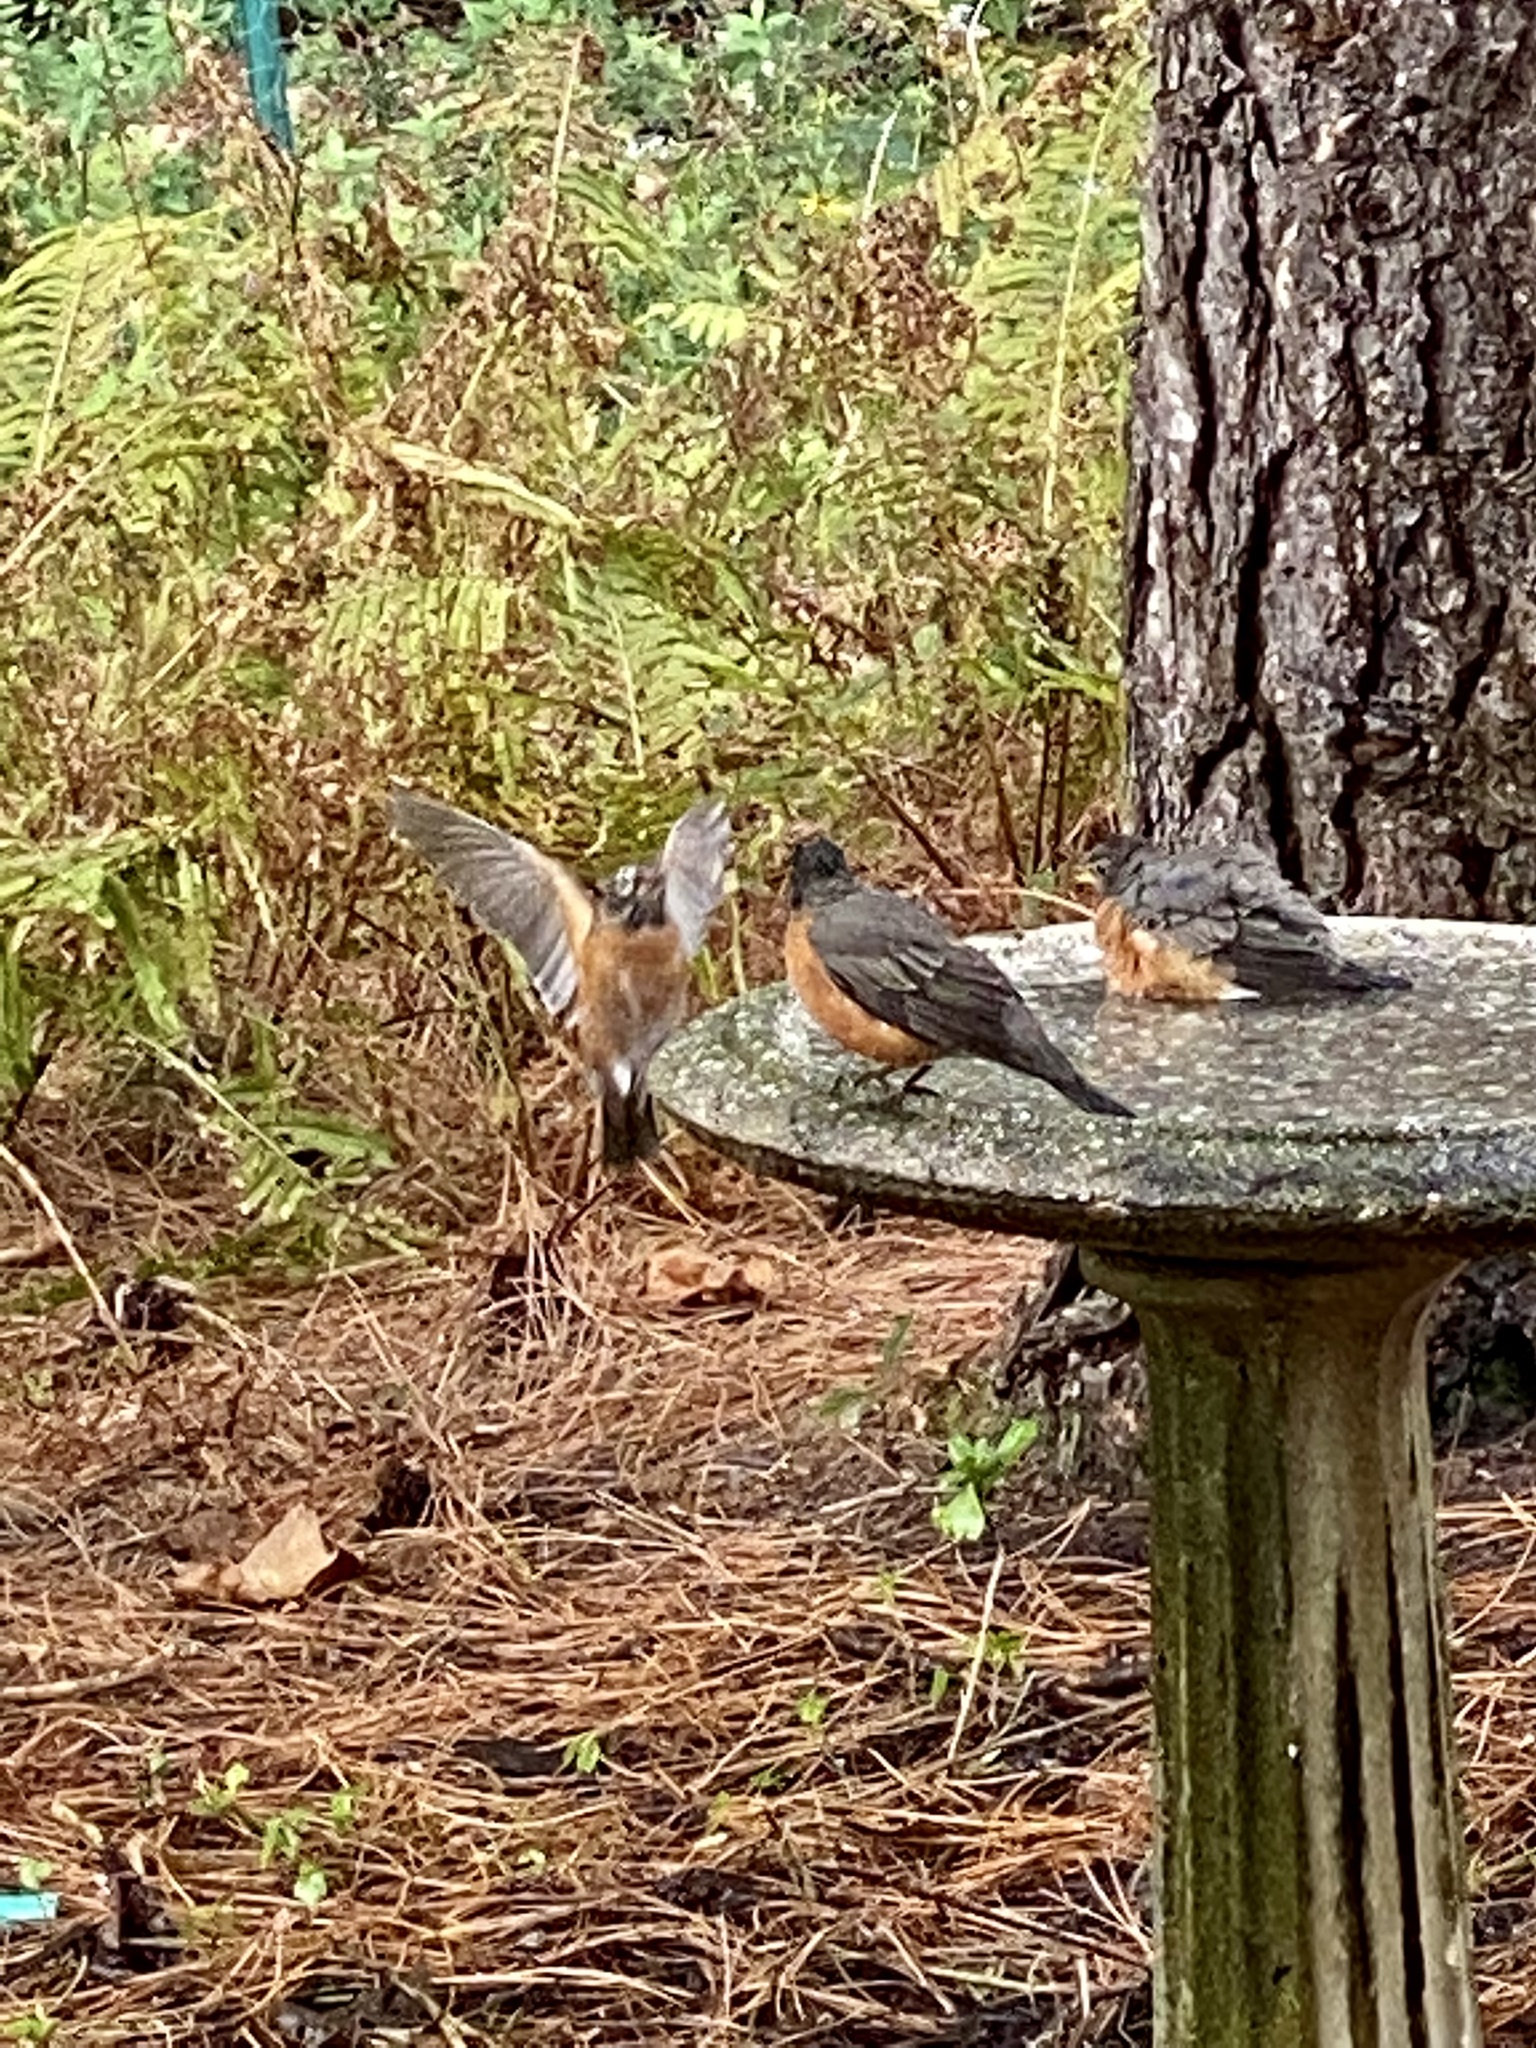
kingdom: Animalia
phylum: Chordata
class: Aves
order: Passeriformes
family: Turdidae
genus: Turdus
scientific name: Turdus migratorius
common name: American robin
